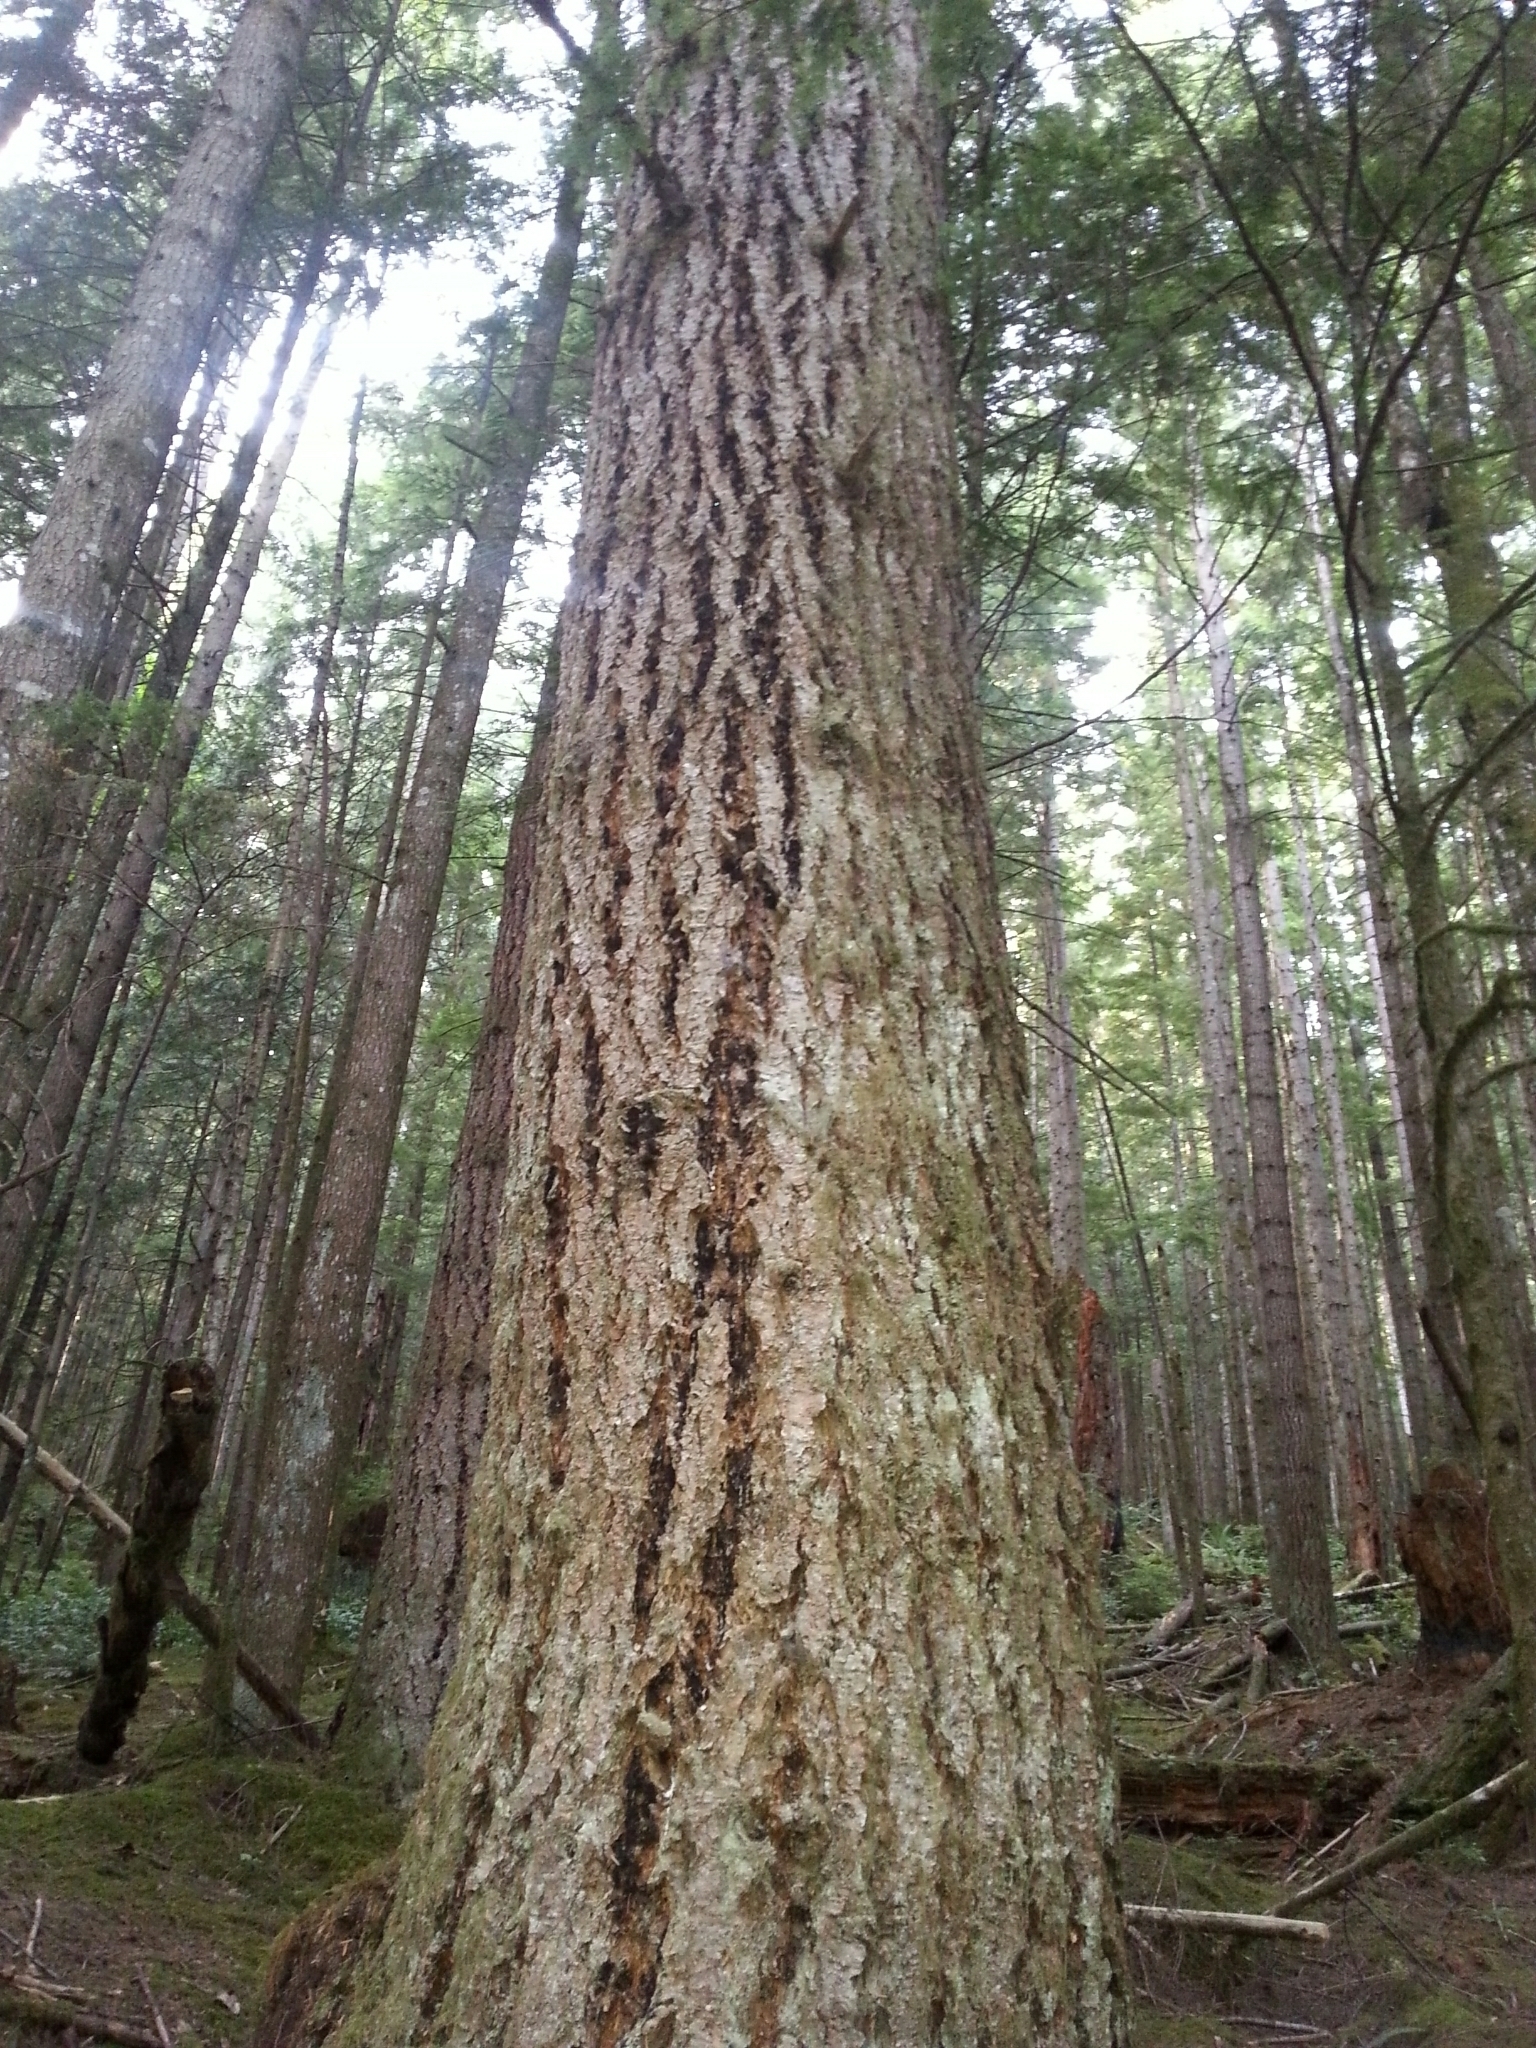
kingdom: Plantae
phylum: Tracheophyta
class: Pinopsida
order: Pinales
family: Pinaceae
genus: Pseudotsuga
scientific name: Pseudotsuga menziesii
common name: Douglas fir
